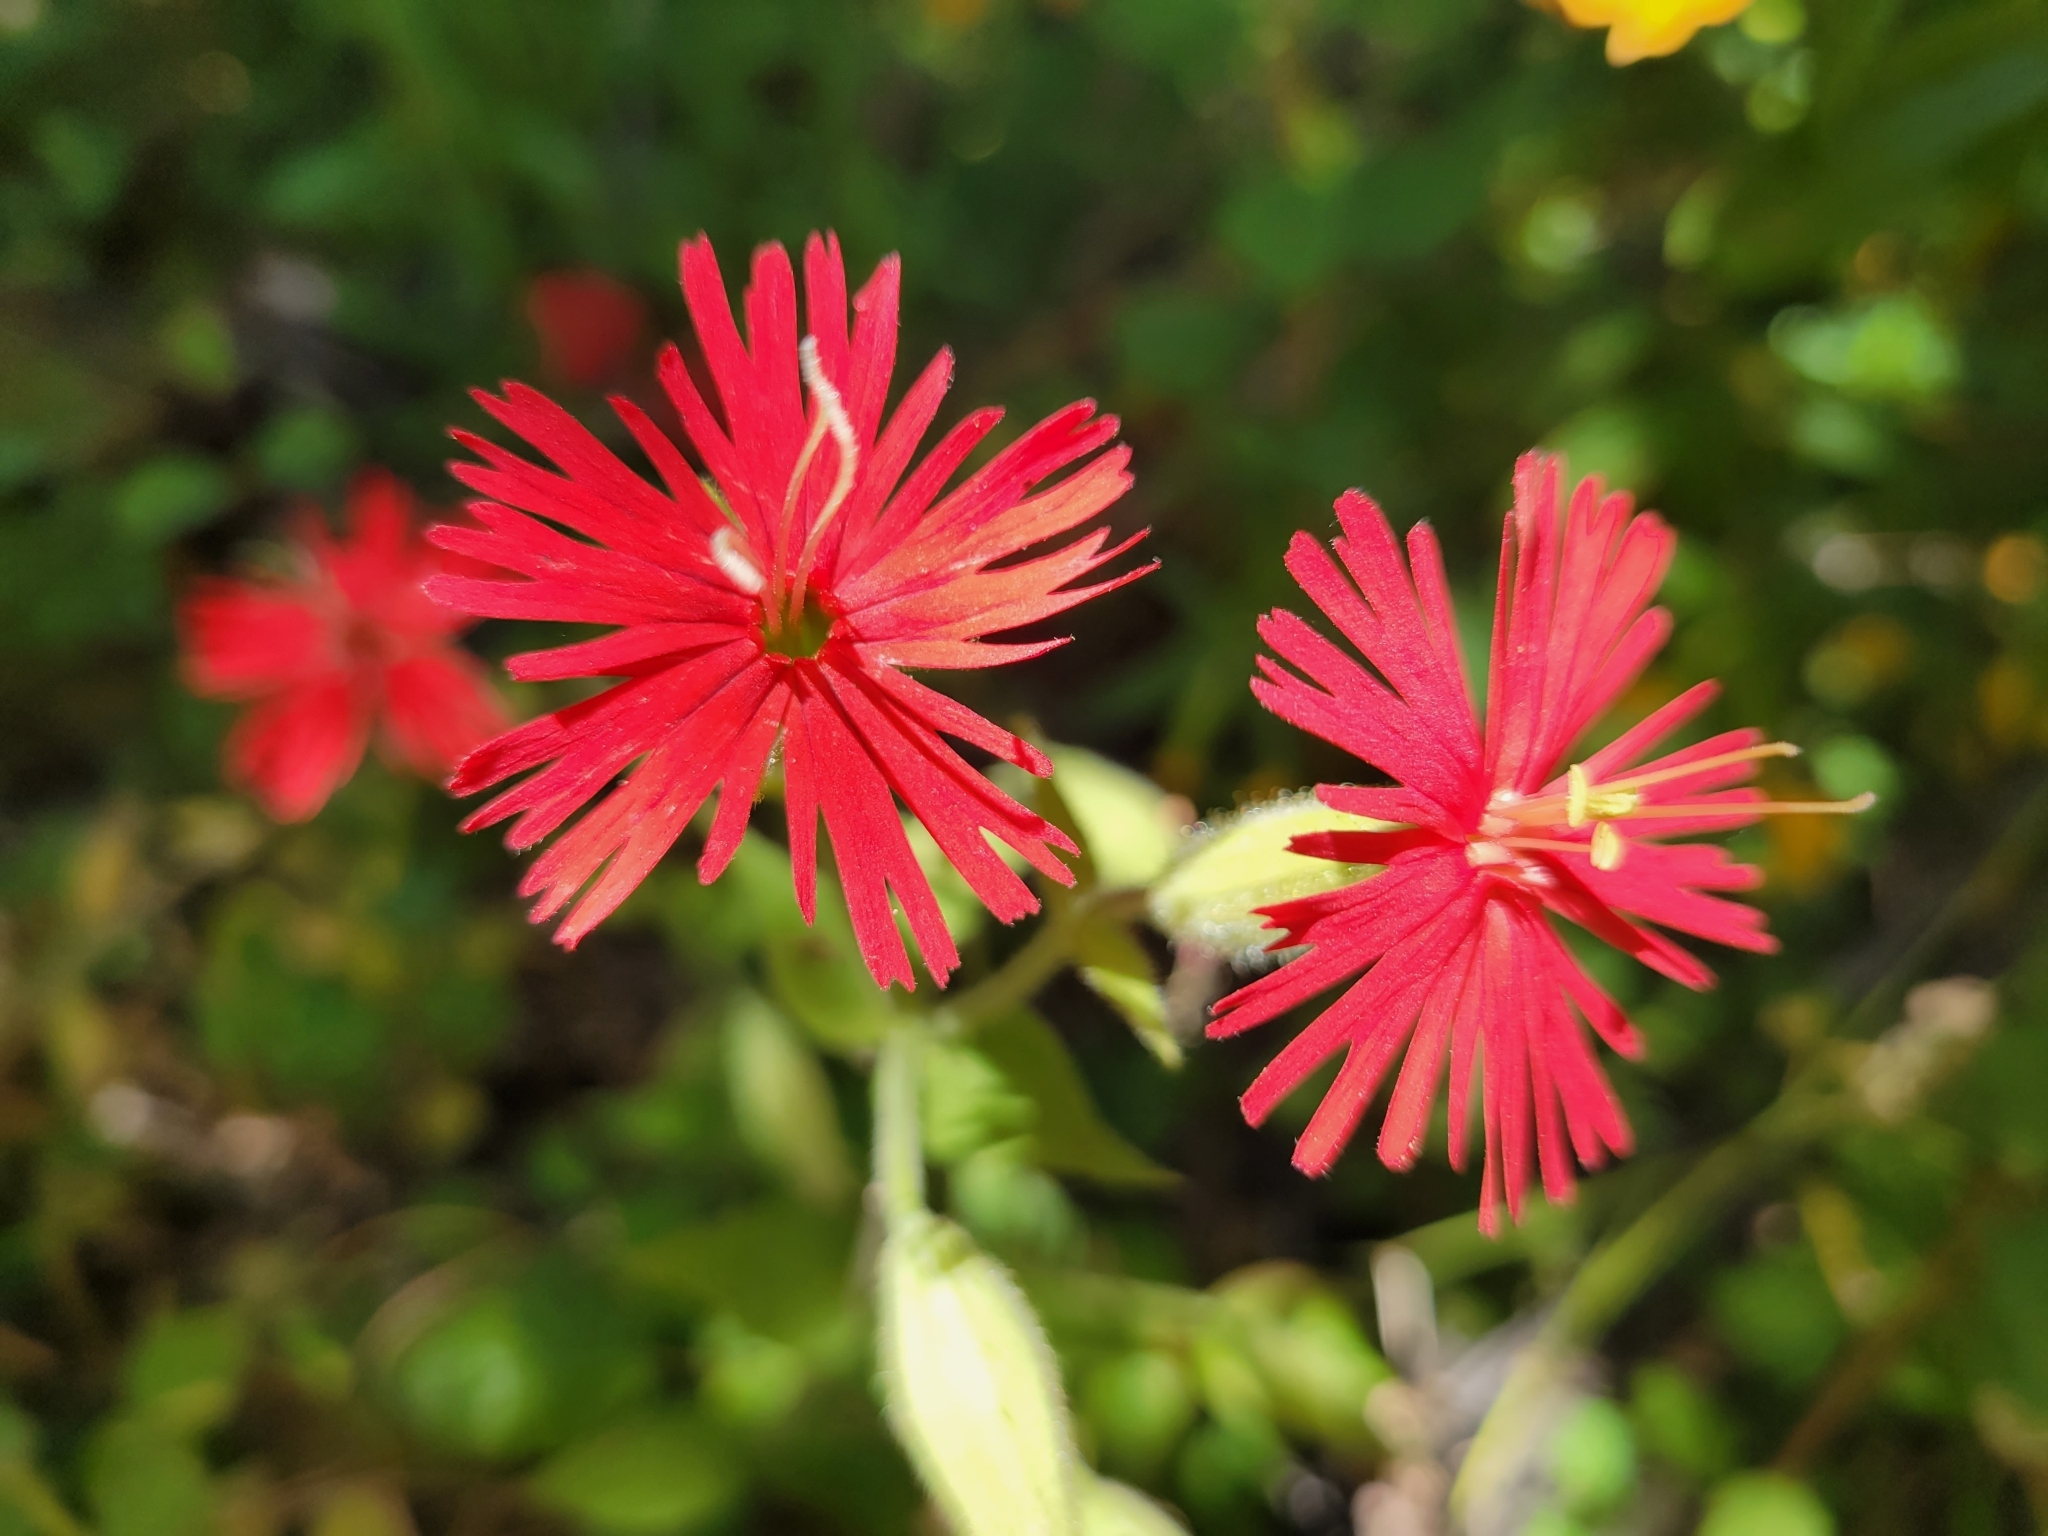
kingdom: Plantae
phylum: Tracheophyta
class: Magnoliopsida
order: Caryophyllales
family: Caryophyllaceae
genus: Silene
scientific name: Silene laciniata
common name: Indian-pink
